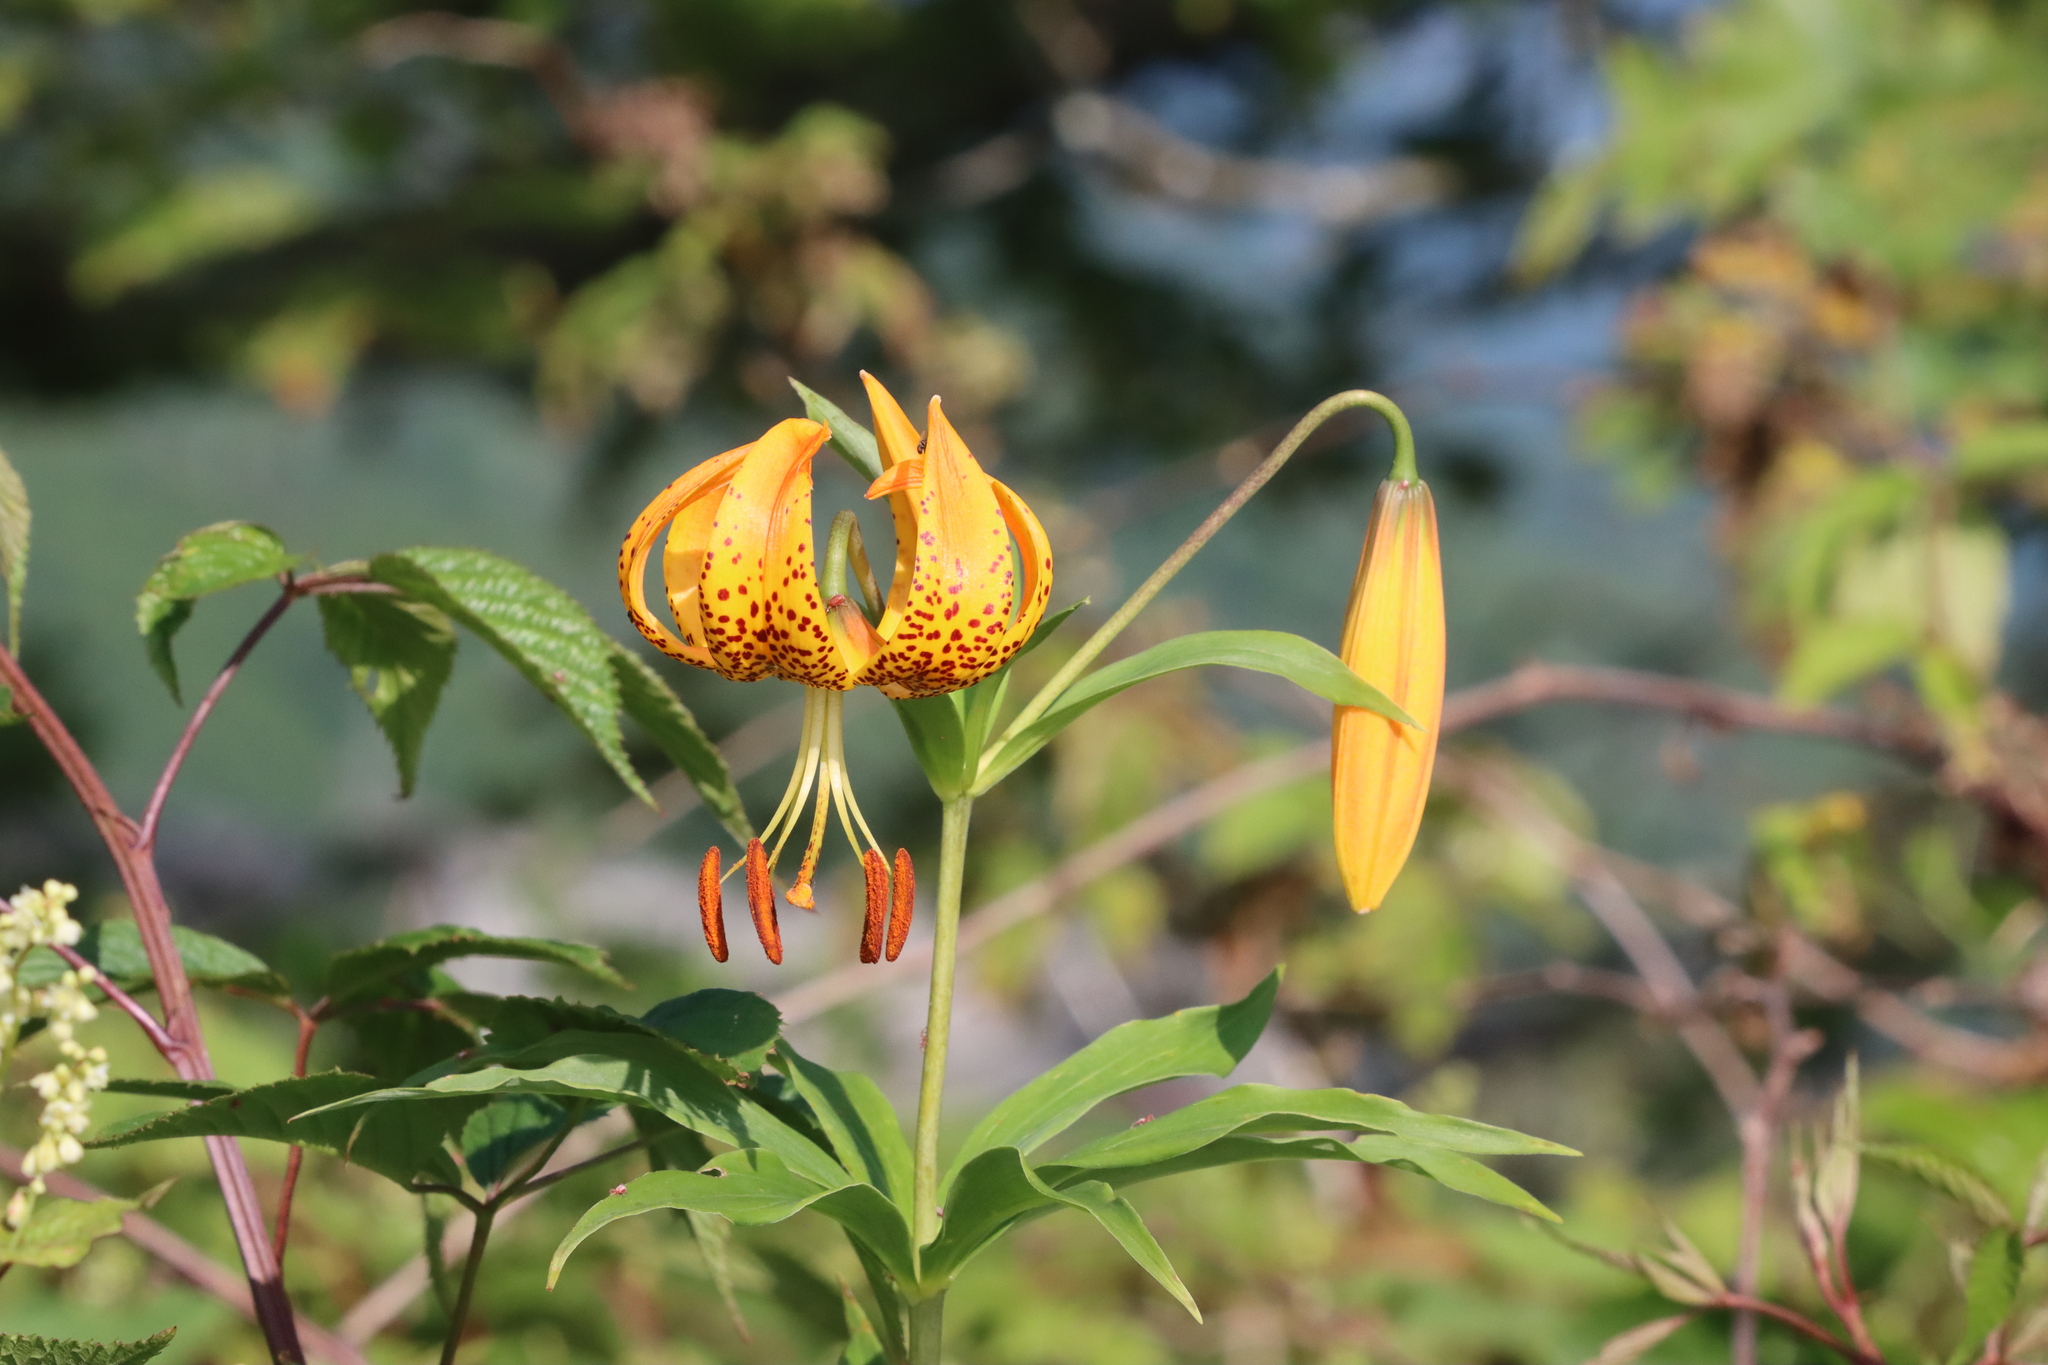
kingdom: Plantae
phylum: Tracheophyta
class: Liliopsida
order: Liliales
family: Liliaceae
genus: Lilium
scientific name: Lilium superbum
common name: American turk's-cap lily
